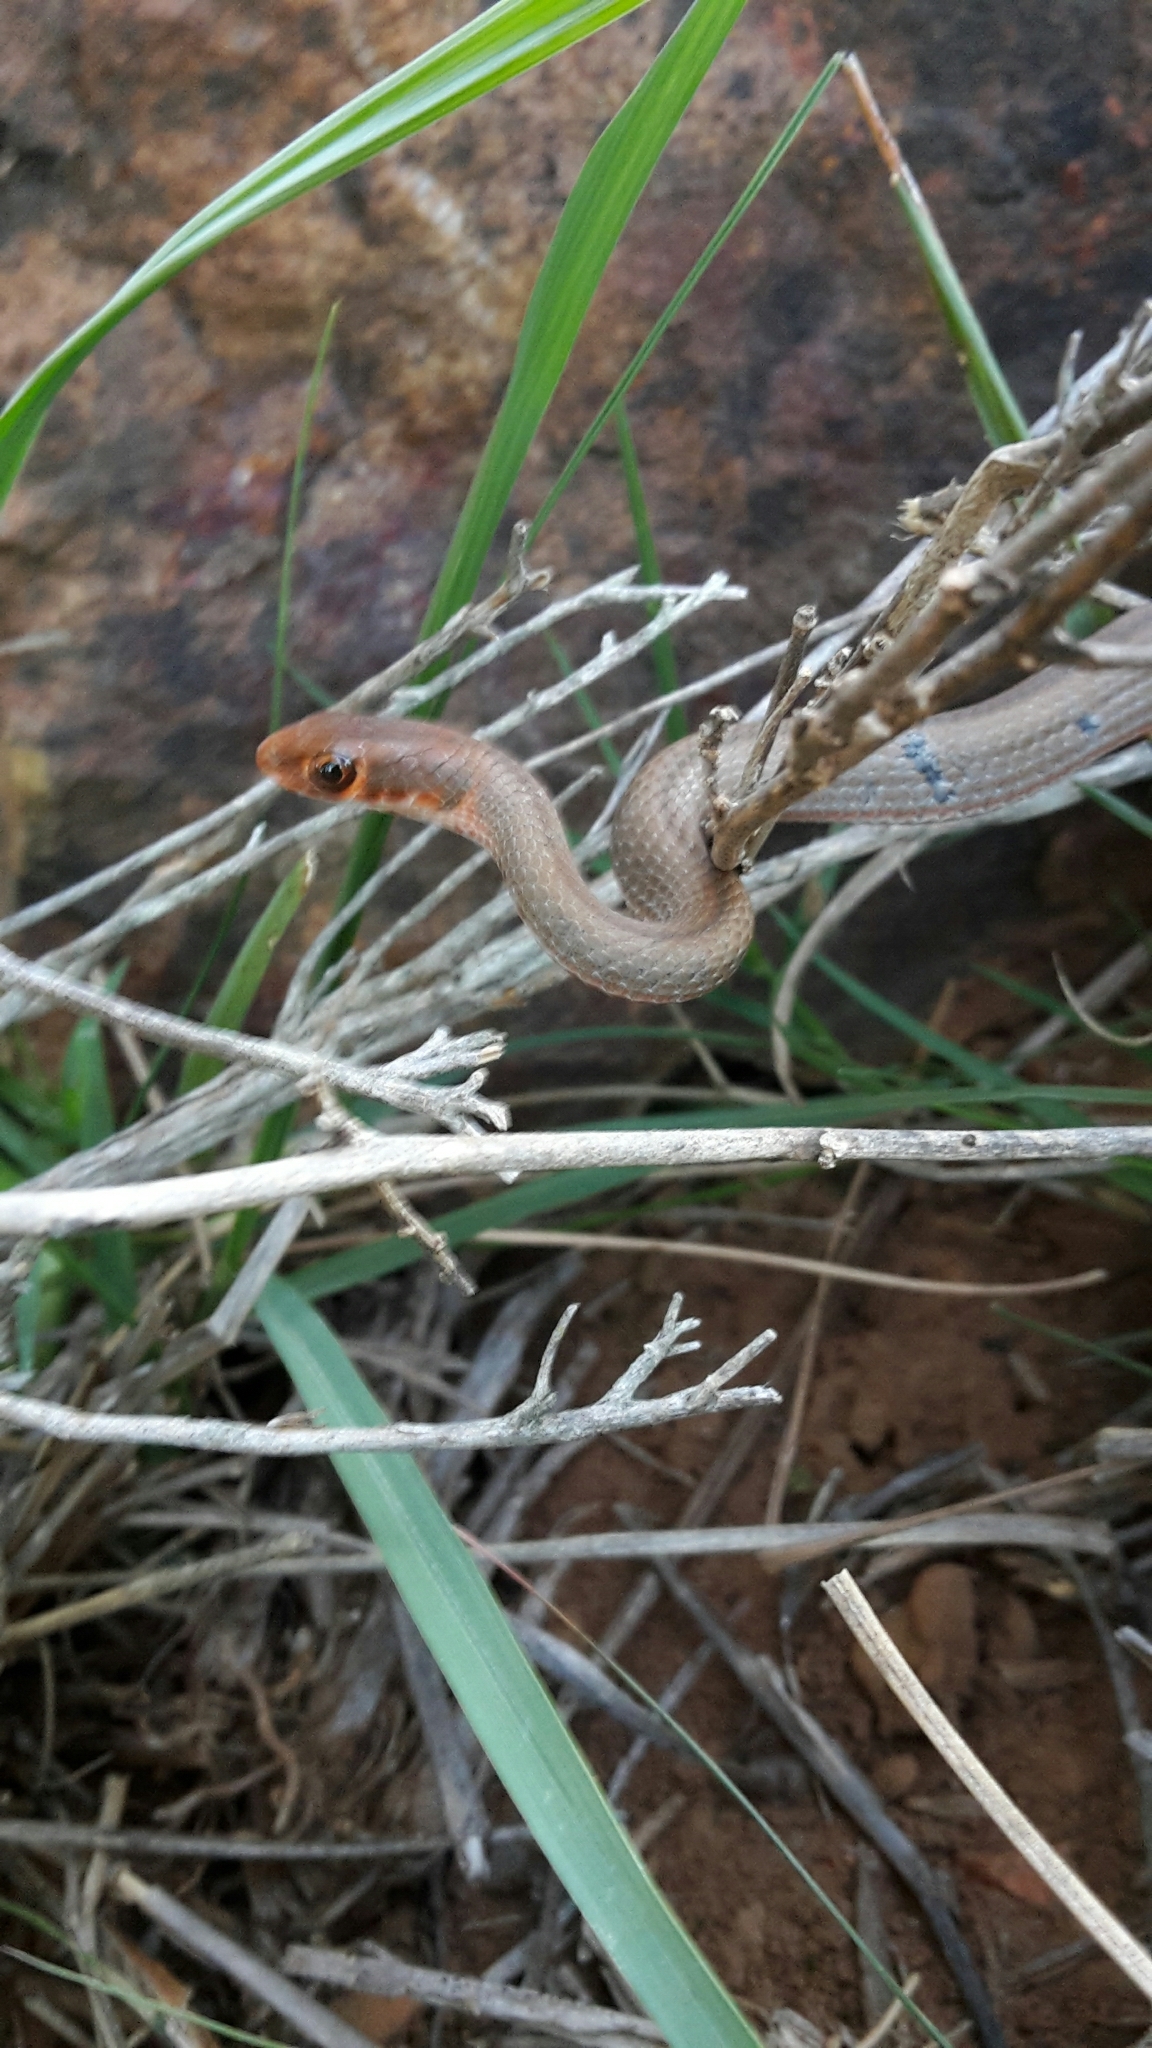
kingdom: Animalia
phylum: Chordata
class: Squamata
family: Psammophiidae
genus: Psammophis
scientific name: Psammophis crucifer
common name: Cross-marked grass snake
